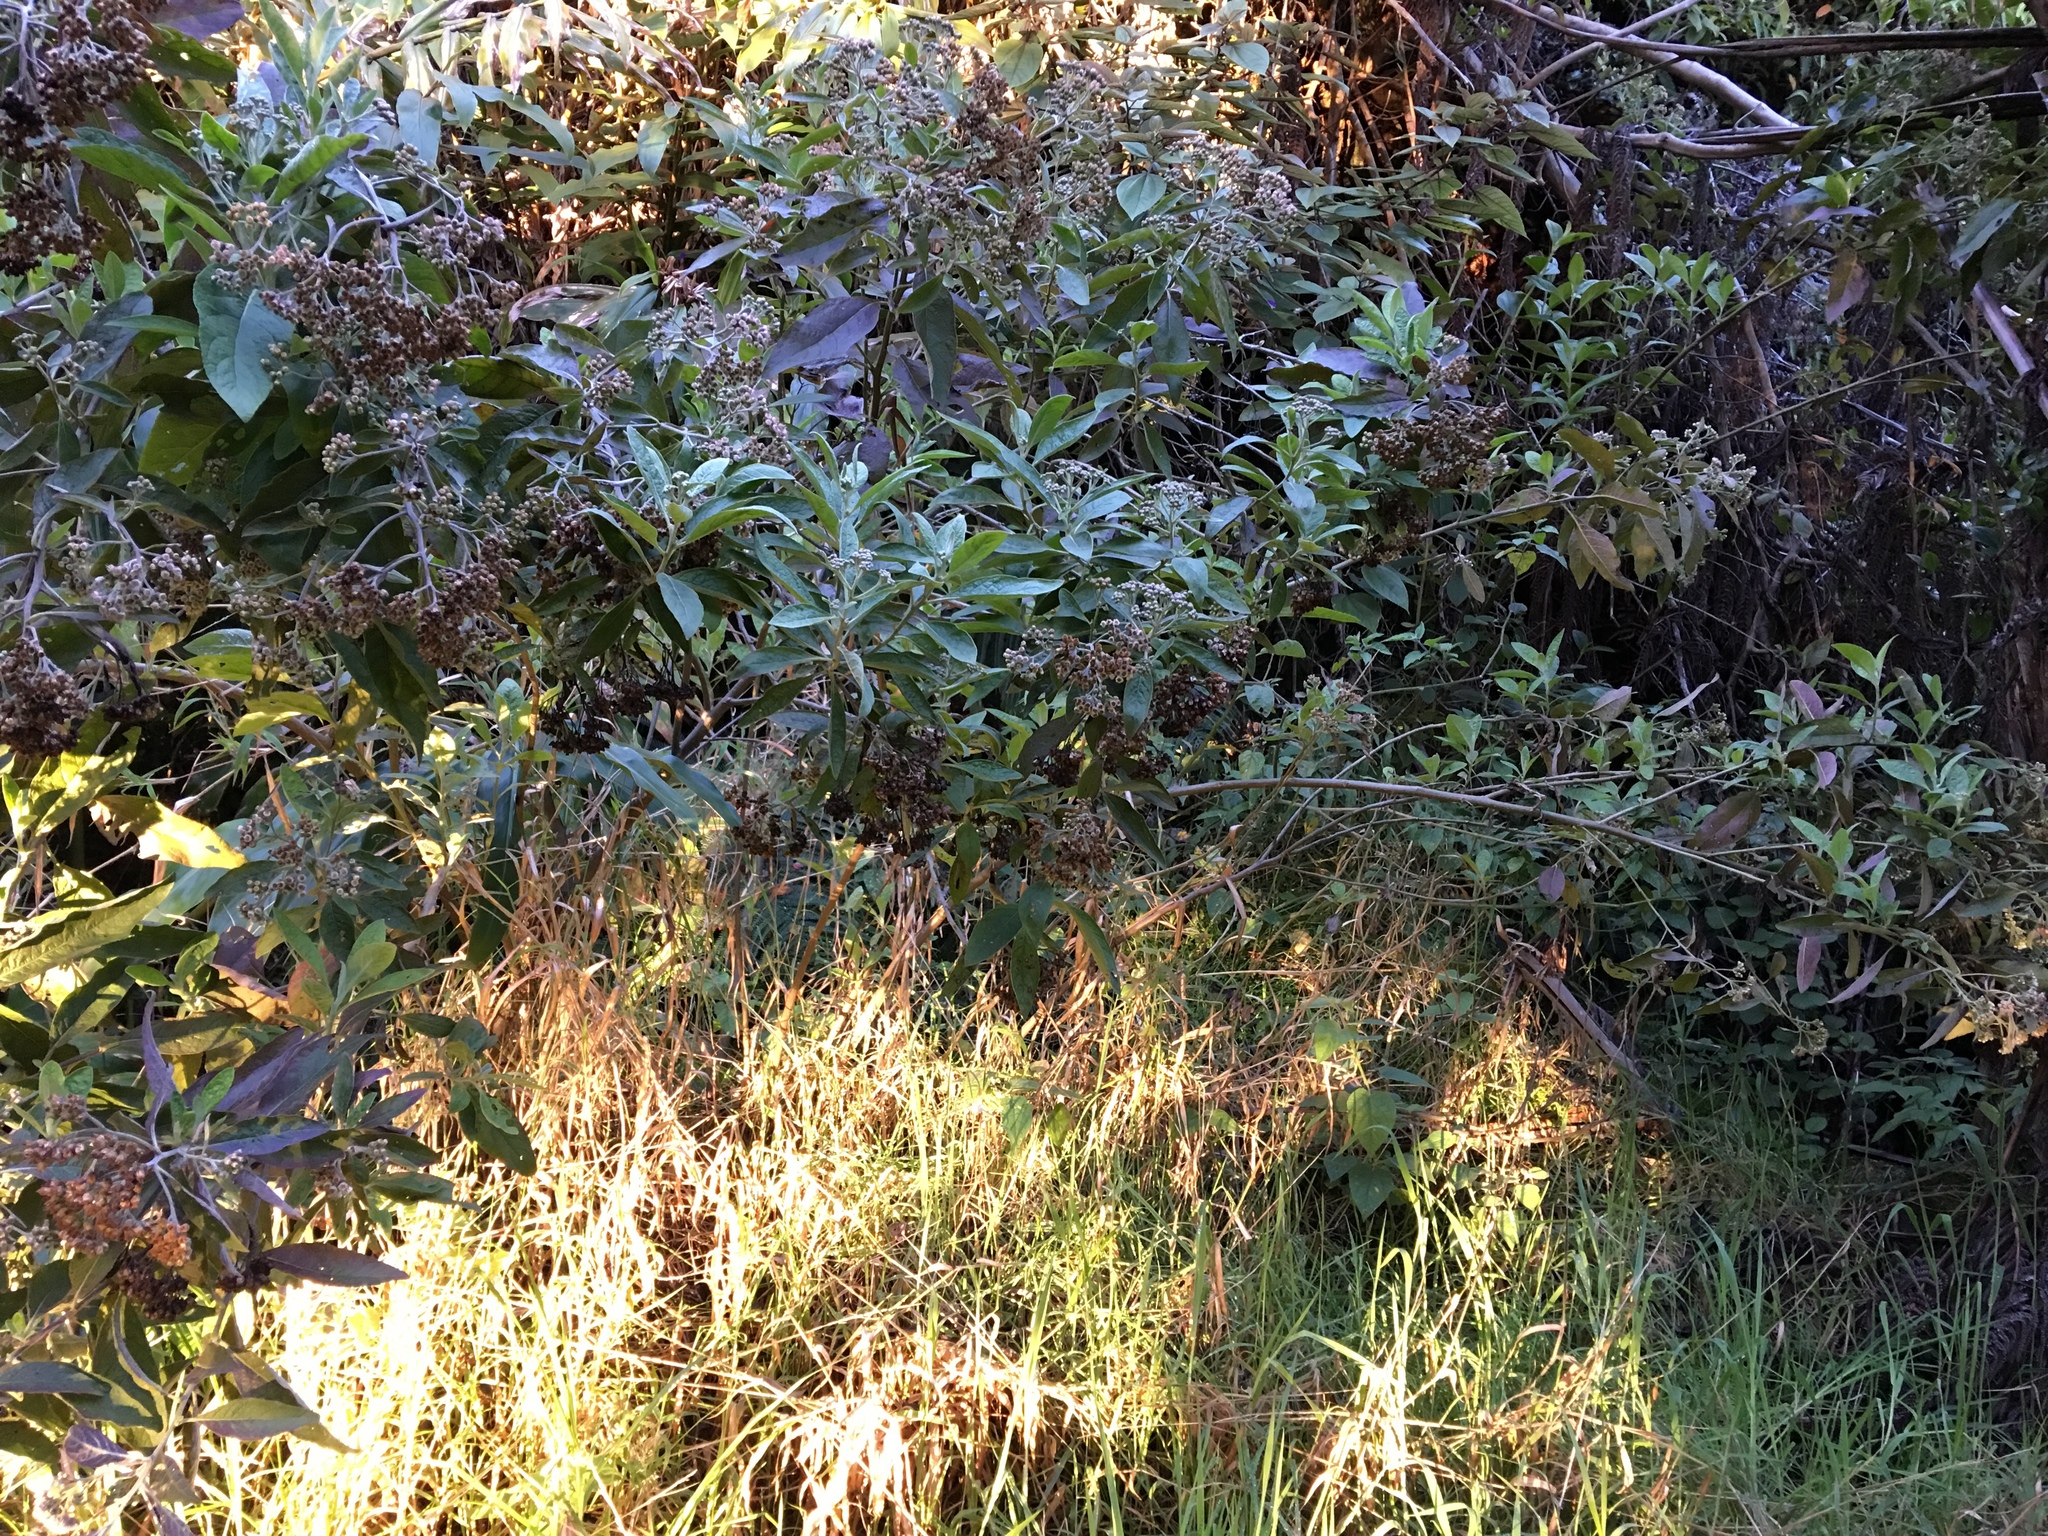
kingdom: Plantae
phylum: Tracheophyta
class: Magnoliopsida
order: Asterales
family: Asteraceae
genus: Pluchea
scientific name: Pluchea carolinensis
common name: Marsh fleabane
